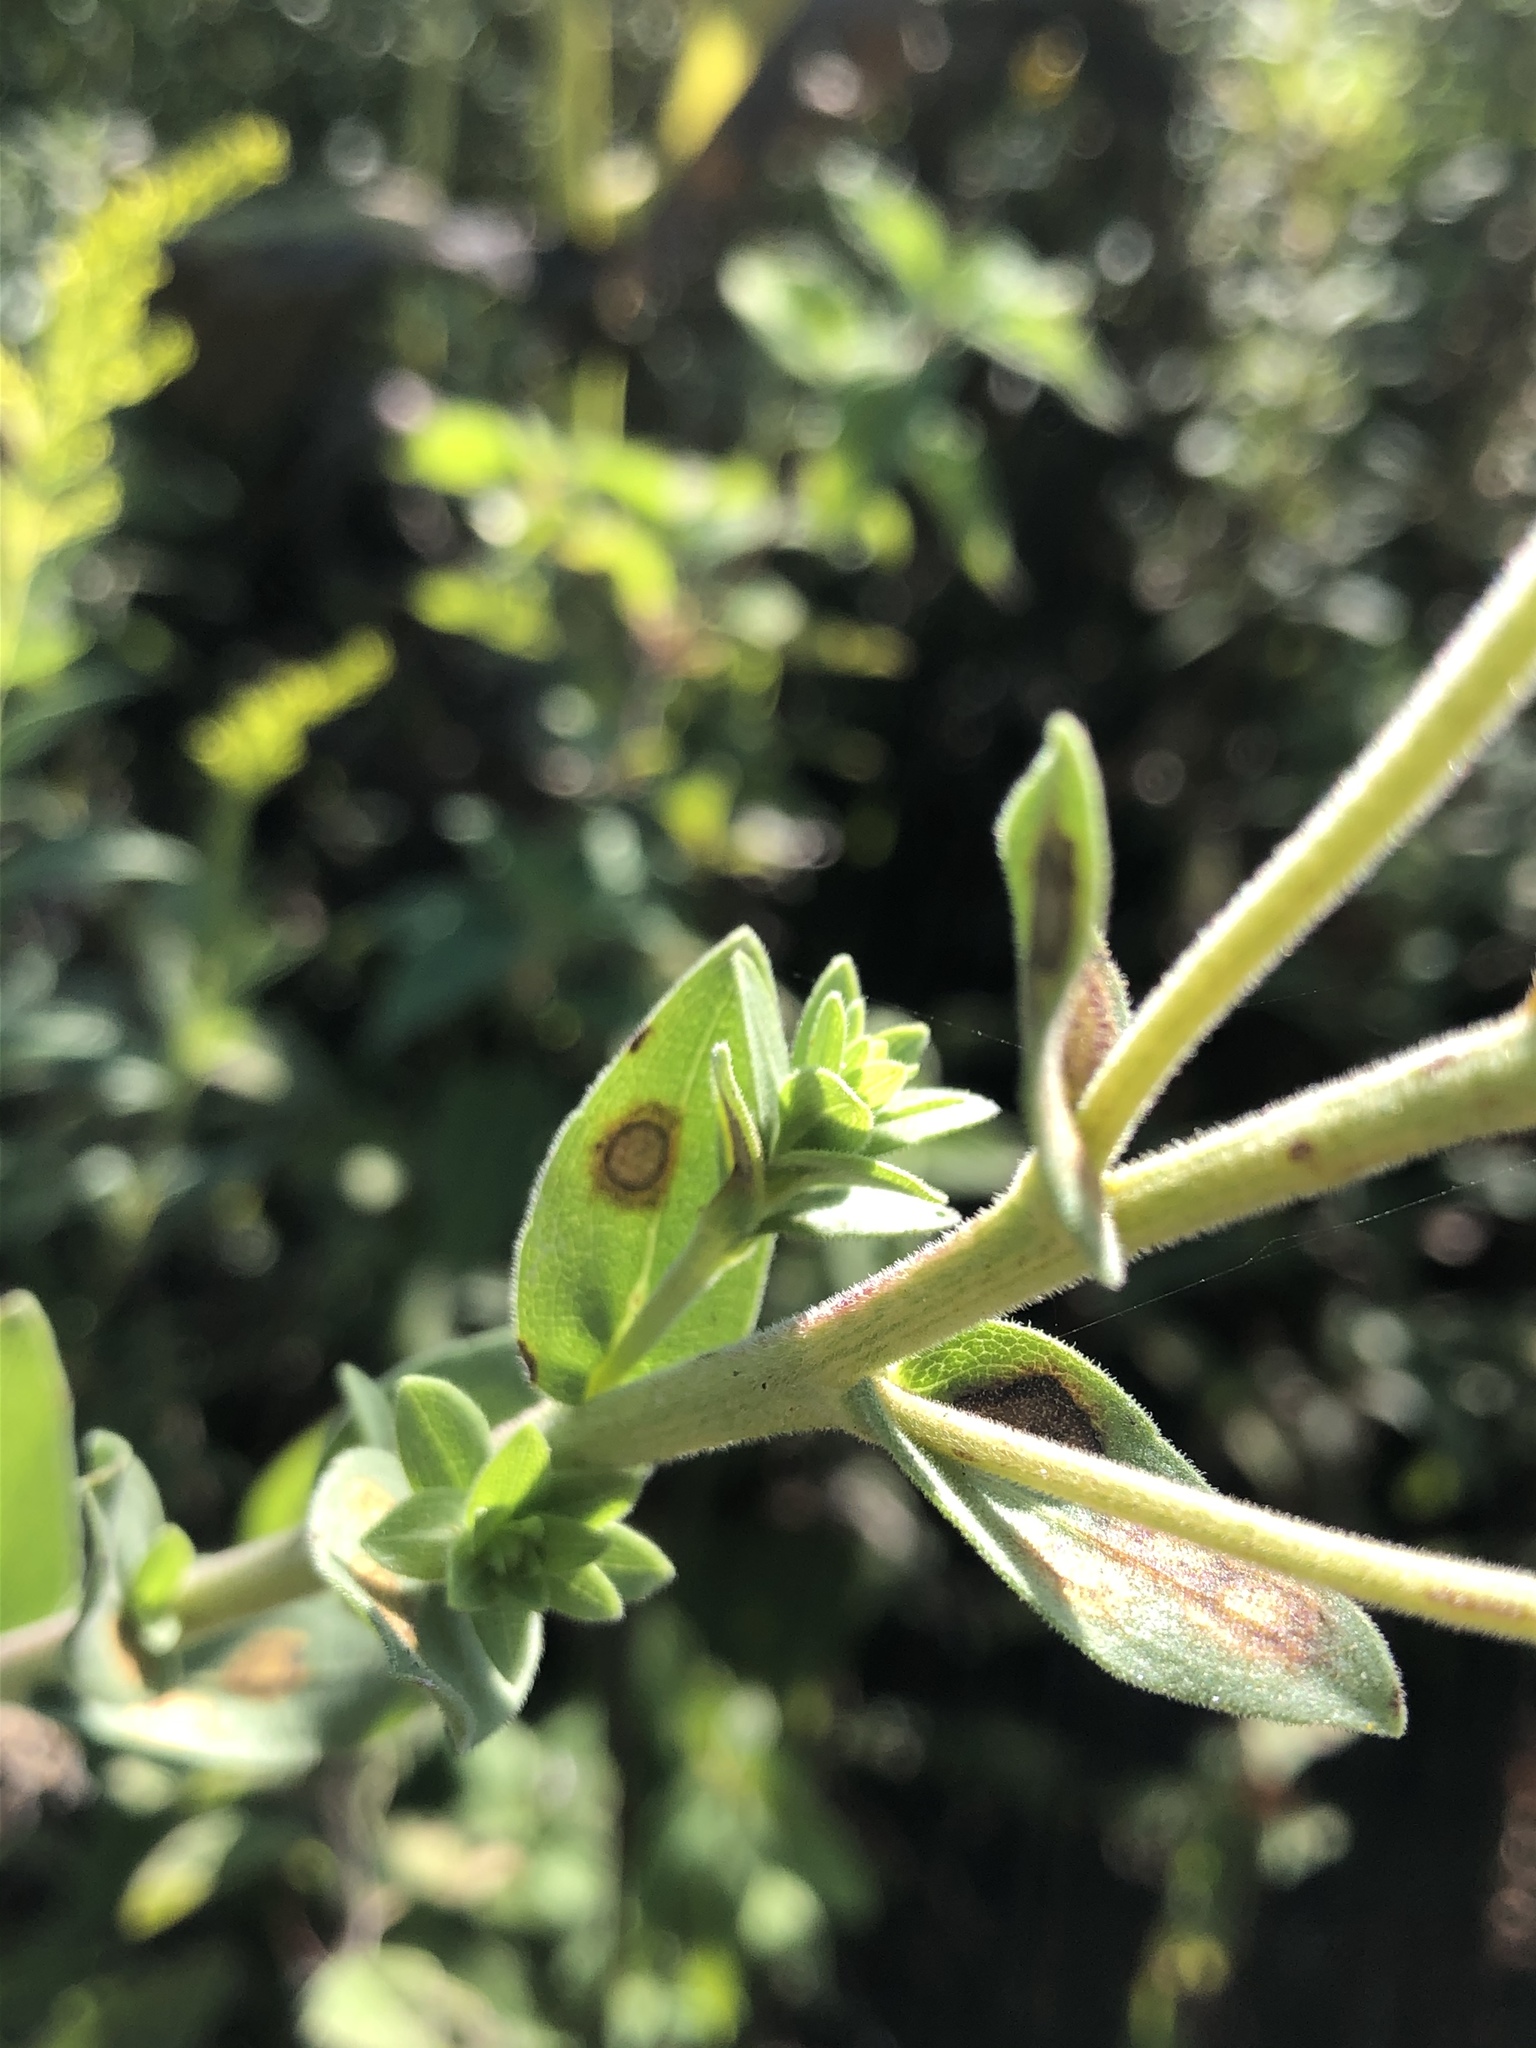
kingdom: Plantae
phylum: Tracheophyta
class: Magnoliopsida
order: Asterales
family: Asteraceae
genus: Solidago
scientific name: Solidago rigida
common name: Rigid goldenrod
